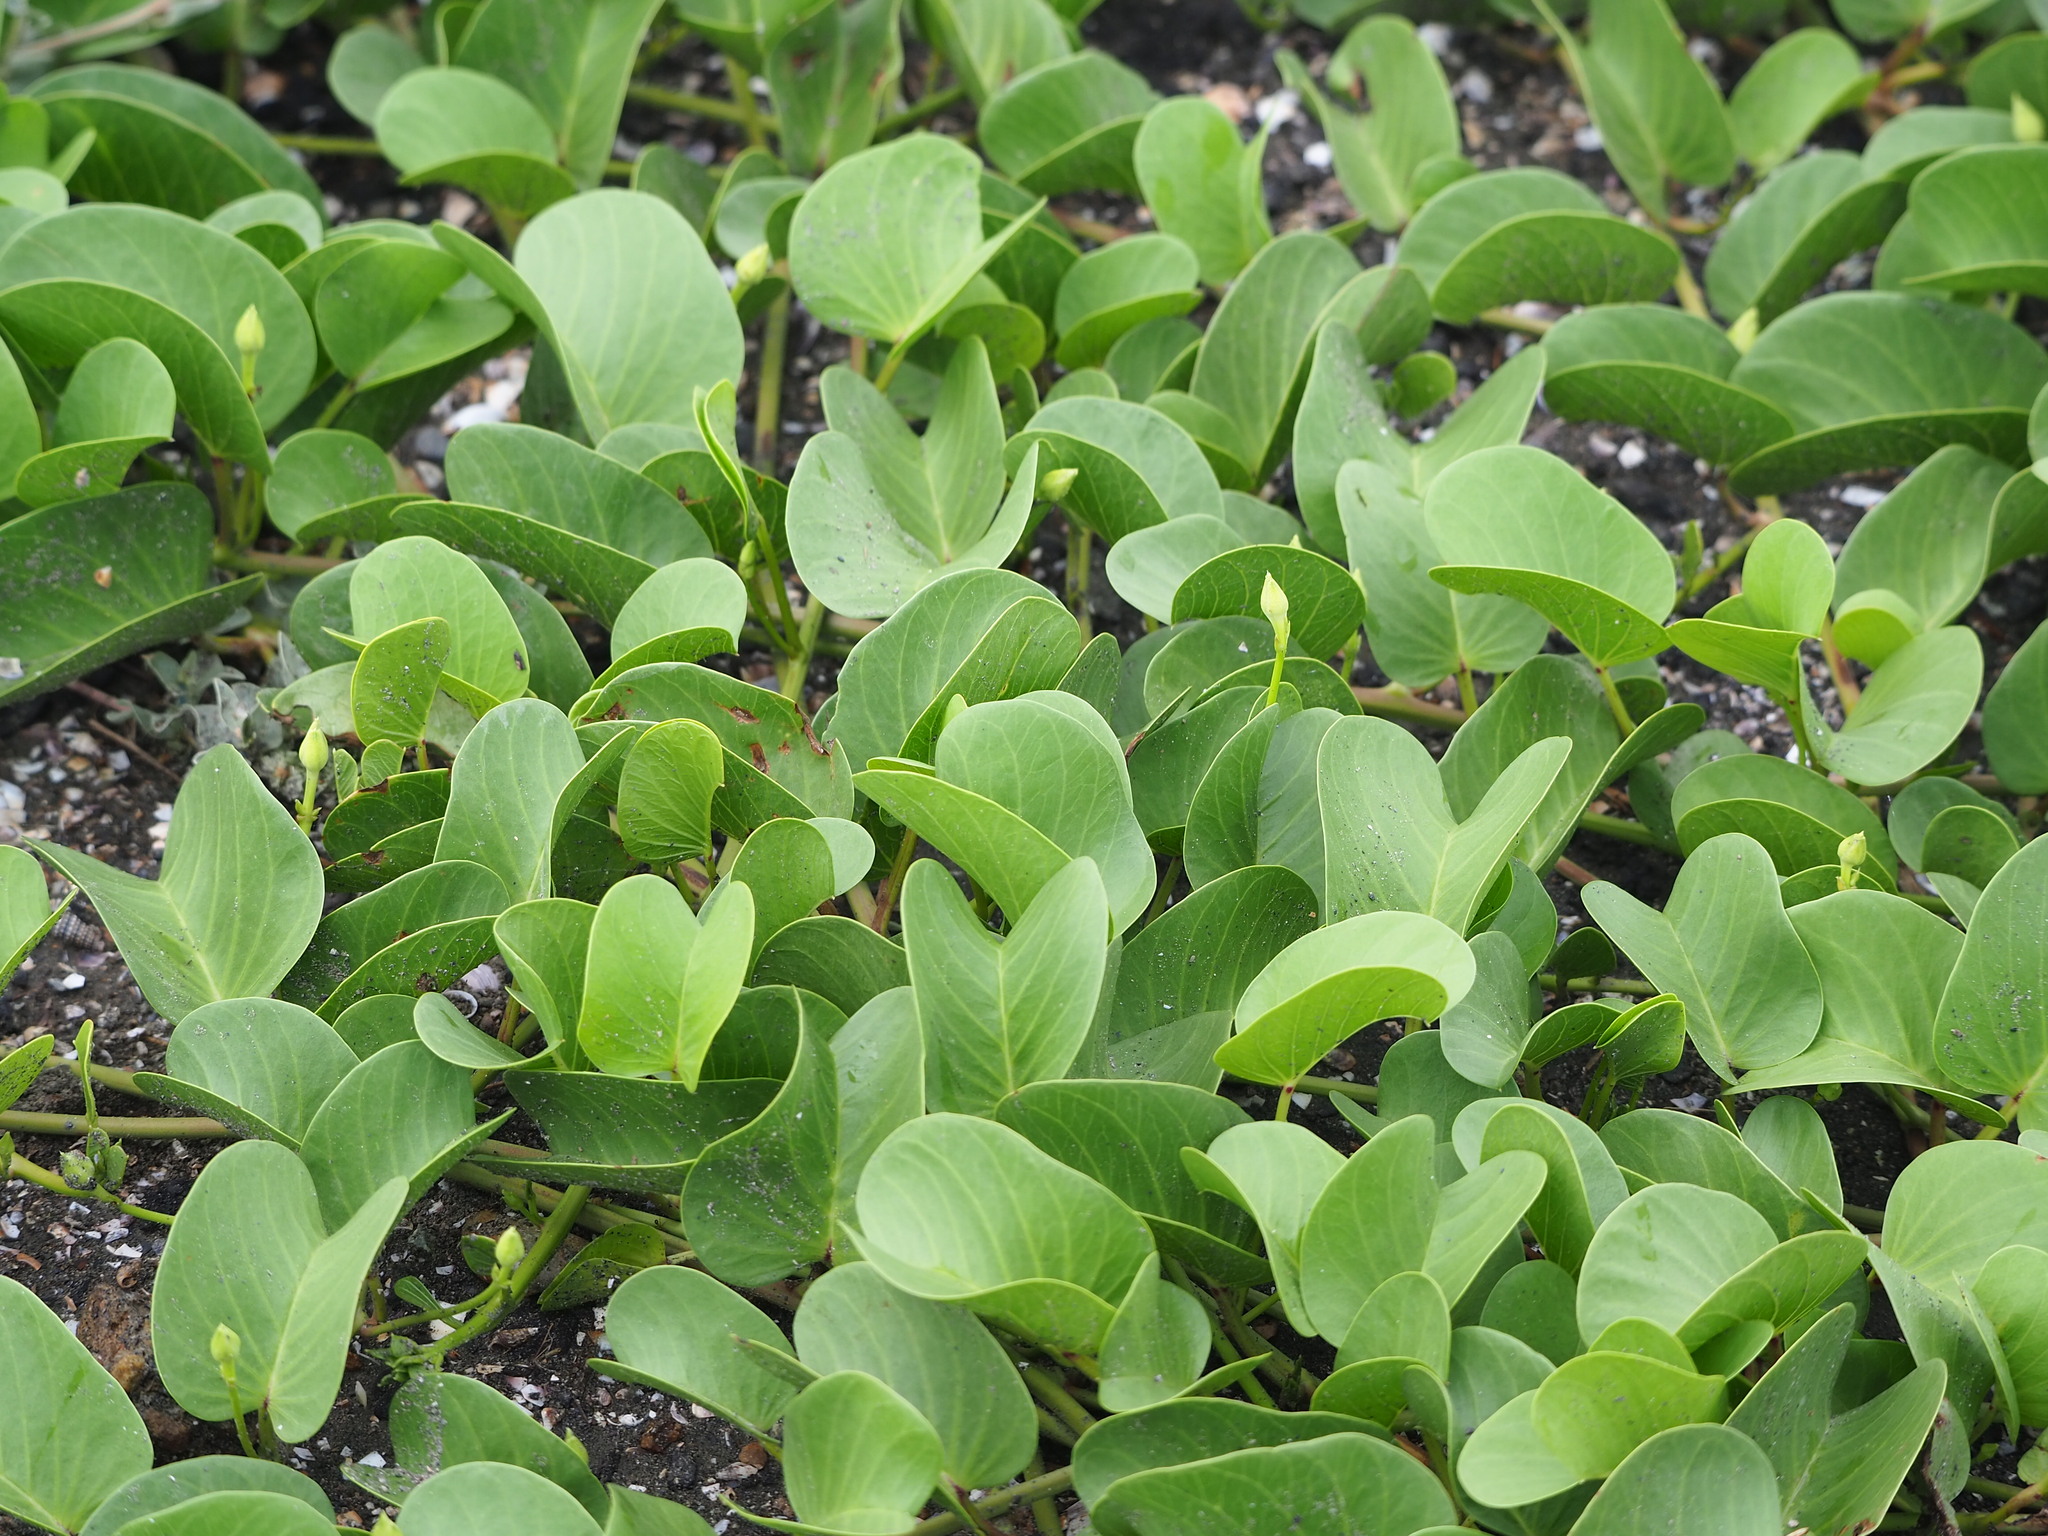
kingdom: Plantae
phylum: Tracheophyta
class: Magnoliopsida
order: Solanales
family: Convolvulaceae
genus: Ipomoea
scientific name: Ipomoea pes-caprae
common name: Beach morning glory
